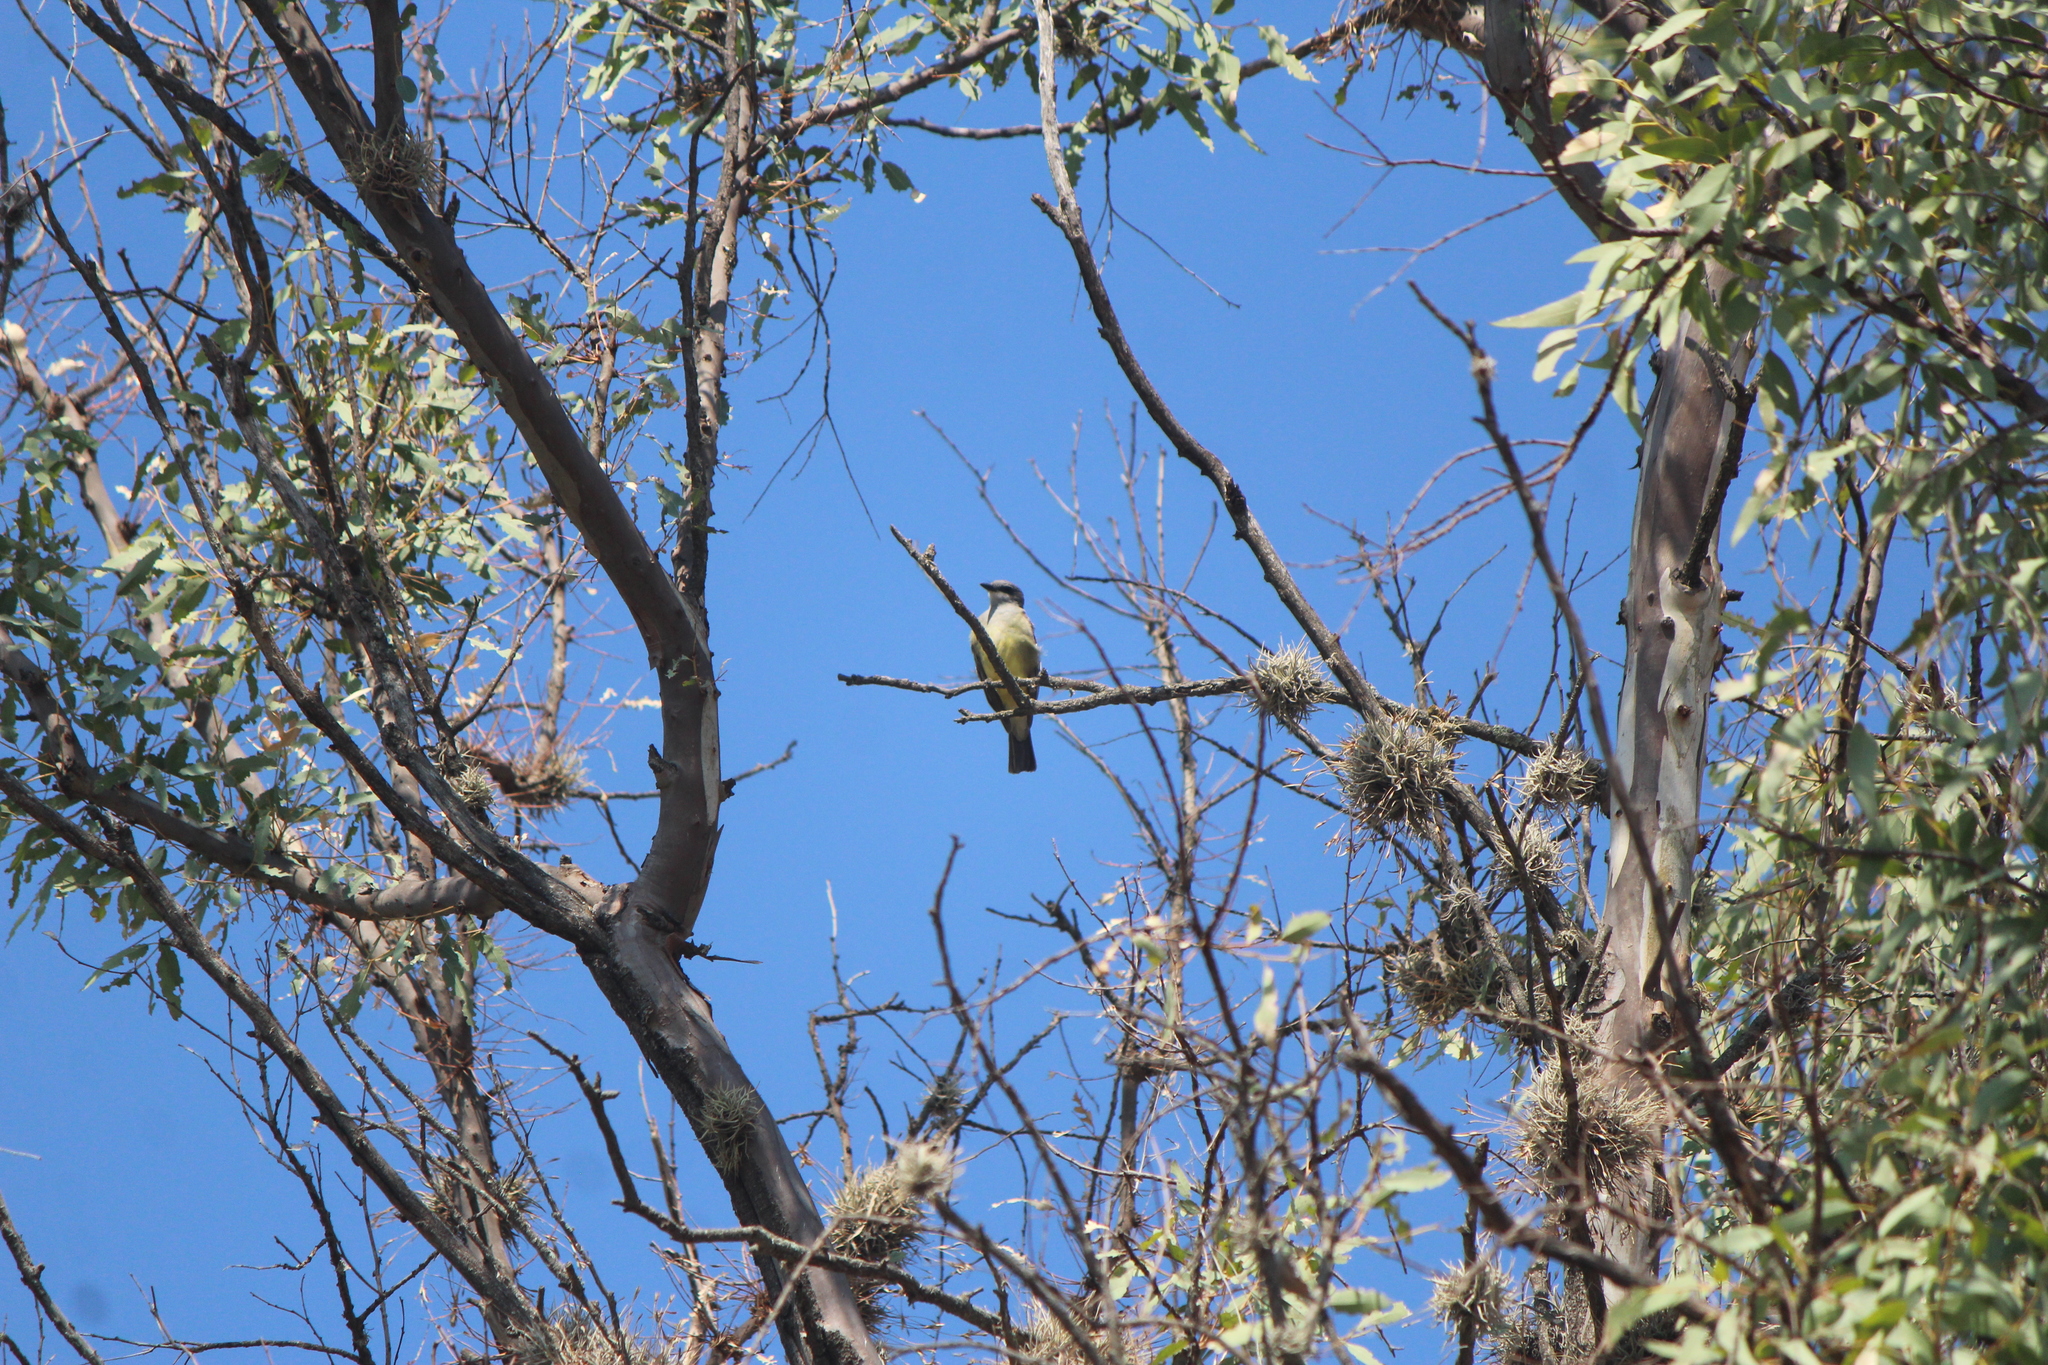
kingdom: Animalia
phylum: Chordata
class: Aves
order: Passeriformes
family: Tyrannidae
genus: Tyrannus
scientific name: Tyrannus vociferans
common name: Cassin's kingbird
